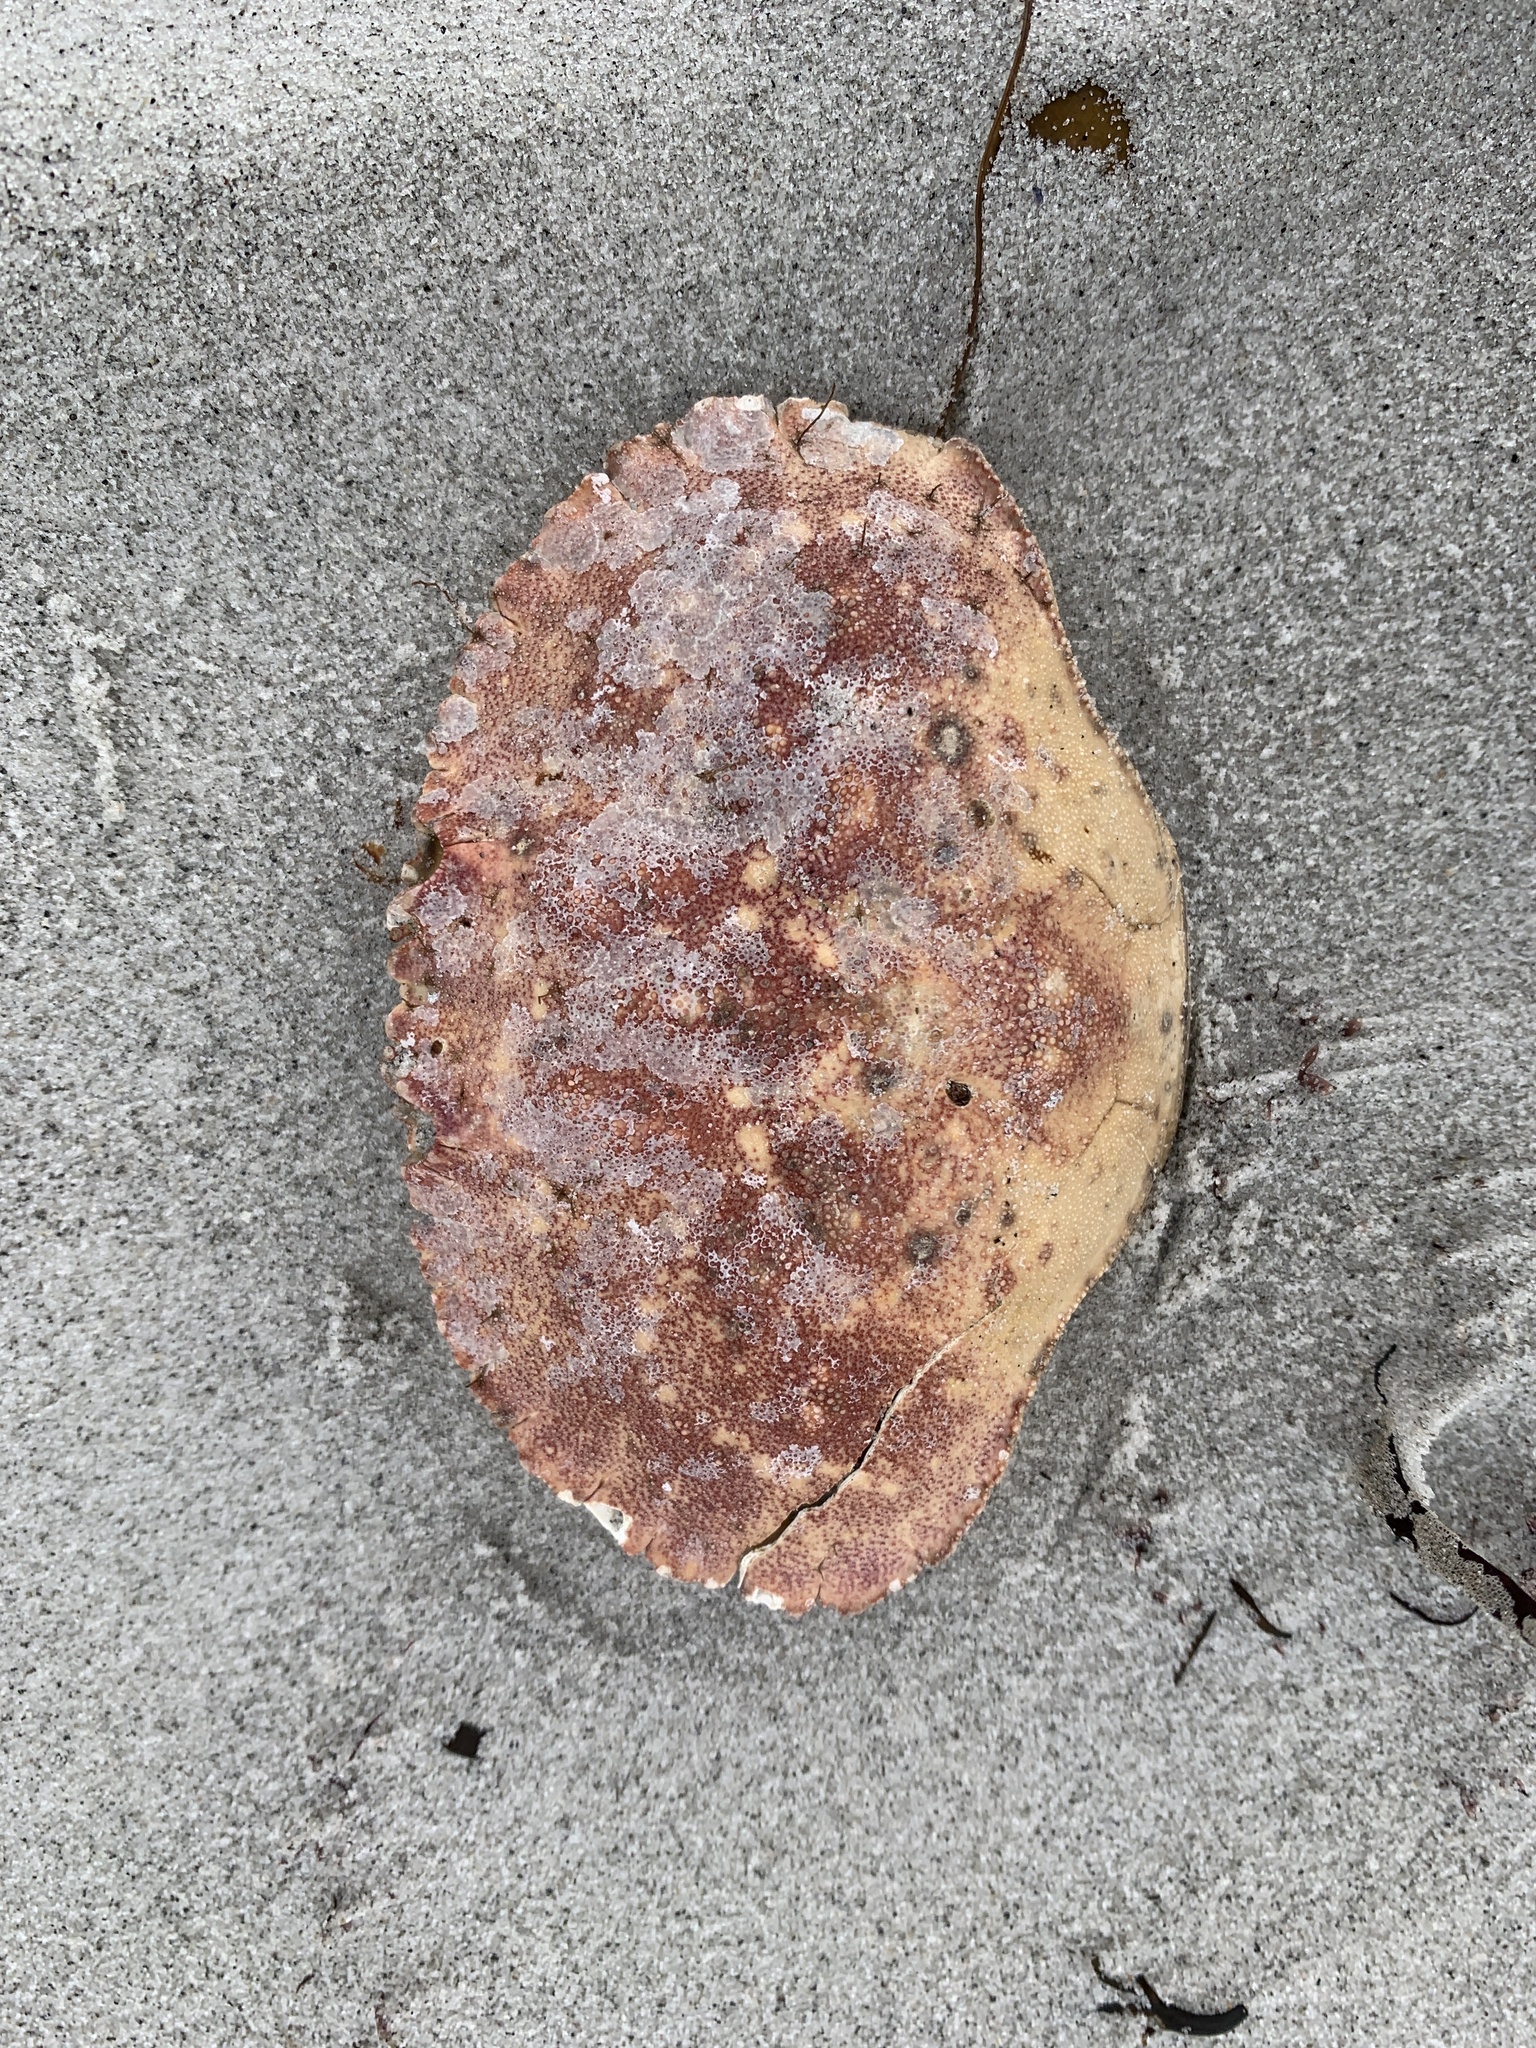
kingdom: Animalia
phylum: Arthropoda
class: Malacostraca
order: Decapoda
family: Cancridae
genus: Cancer
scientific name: Cancer borealis
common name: Jonah crab
